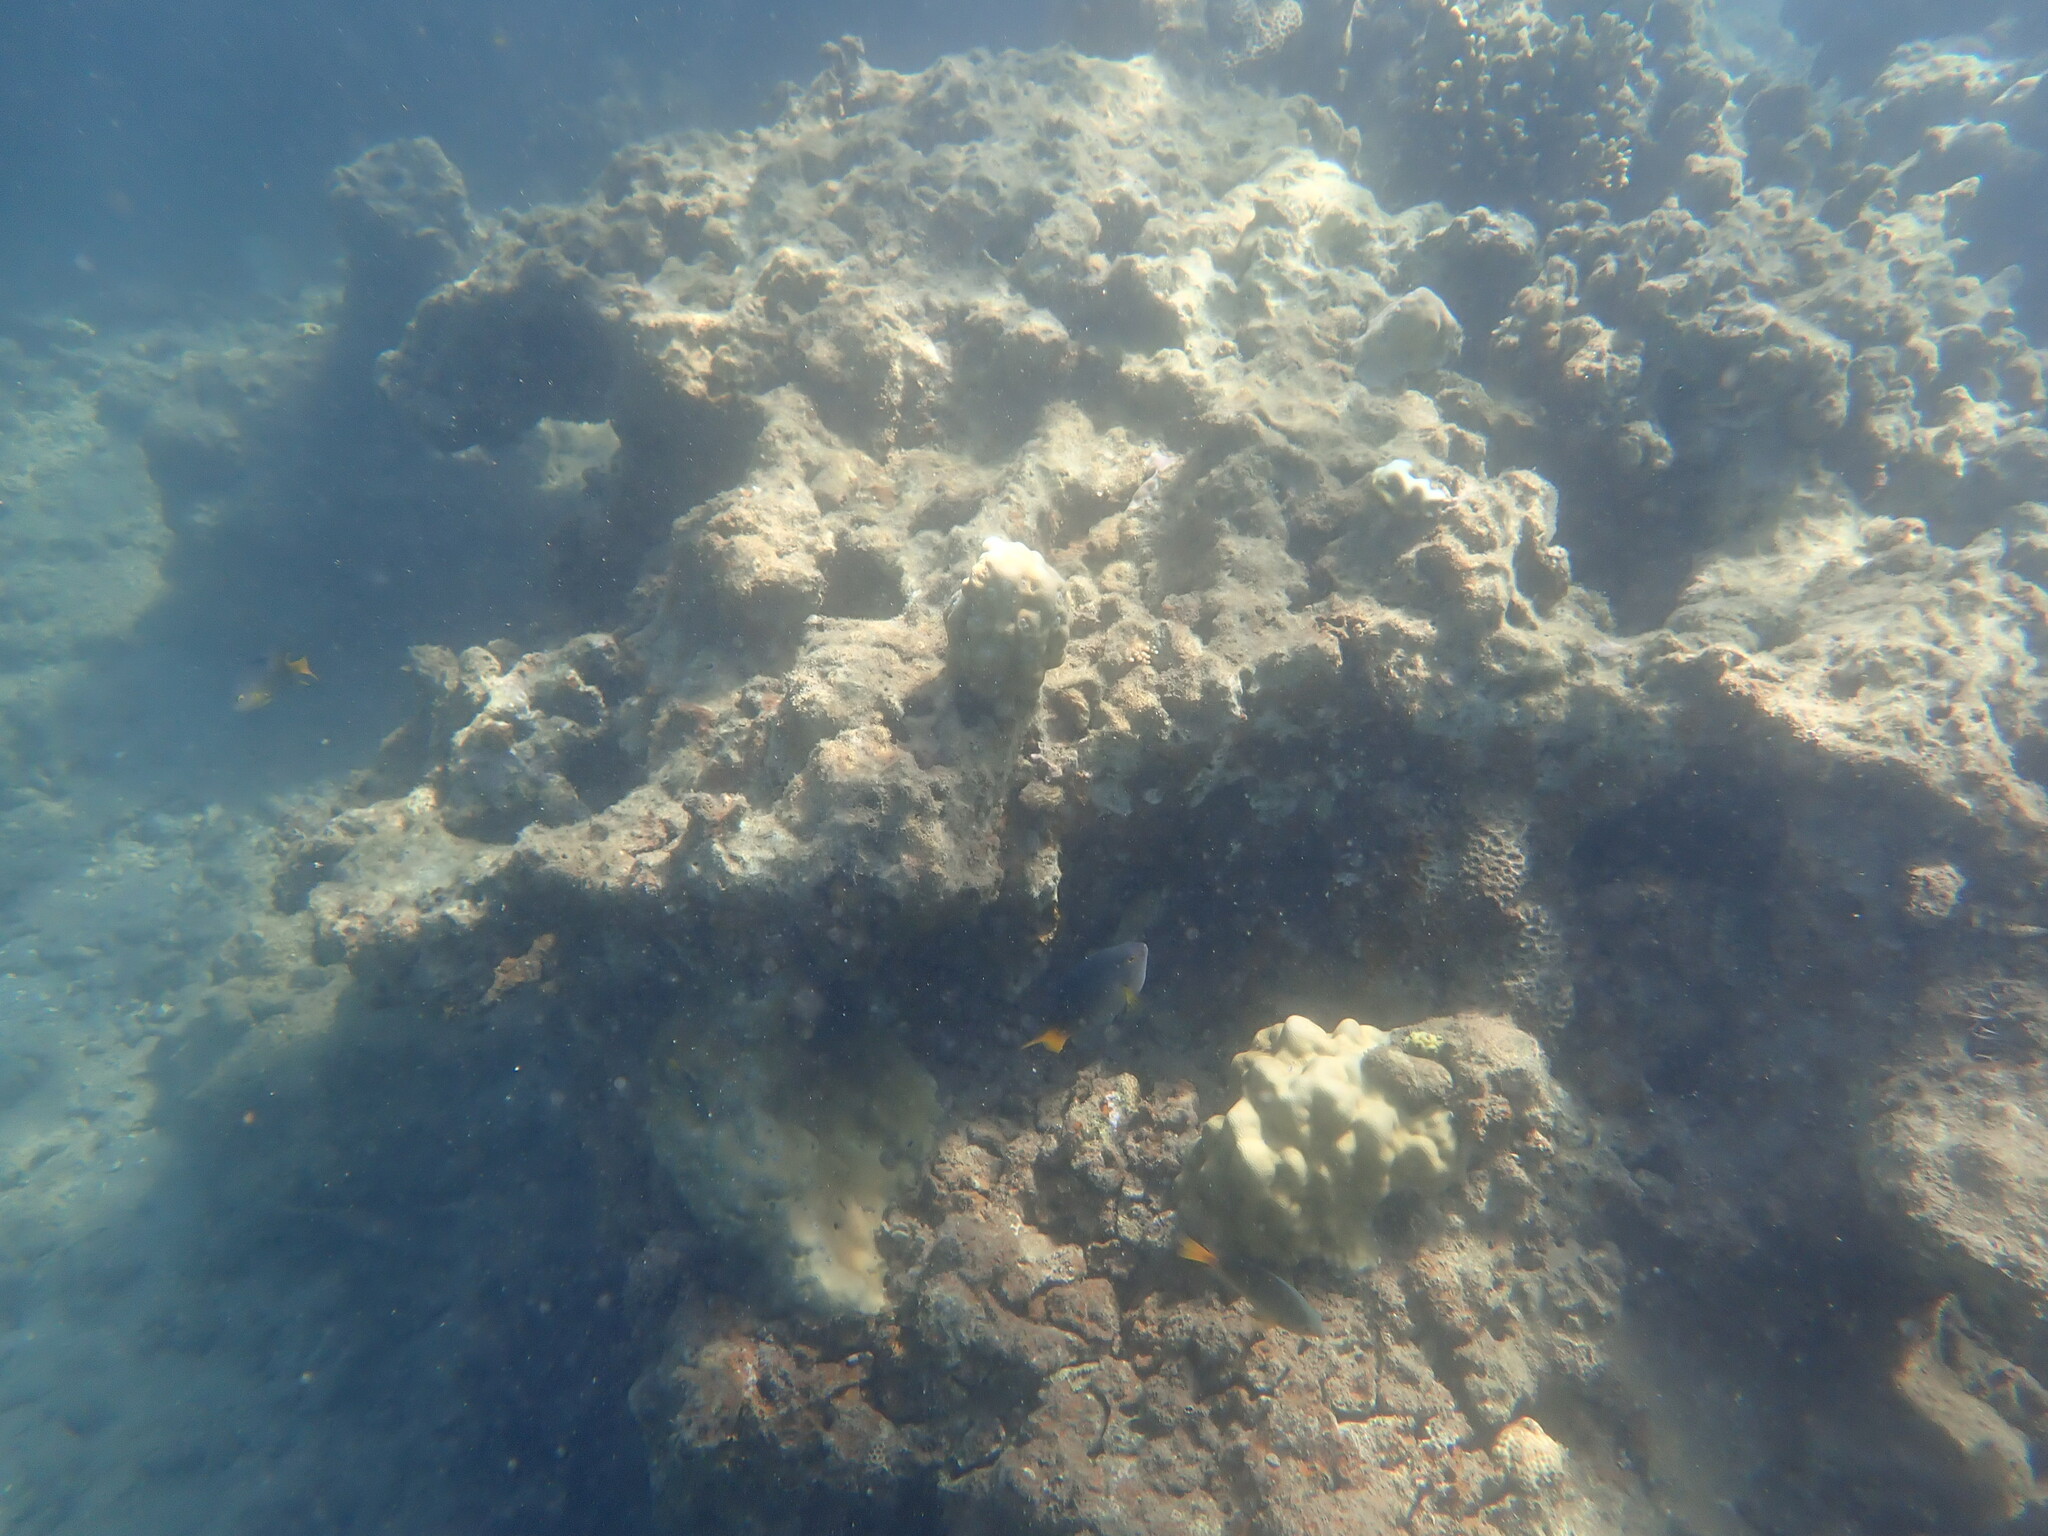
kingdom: Animalia
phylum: Chordata
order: Perciformes
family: Pomacentridae
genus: Pomacentrus
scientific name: Pomacentrus maafu
